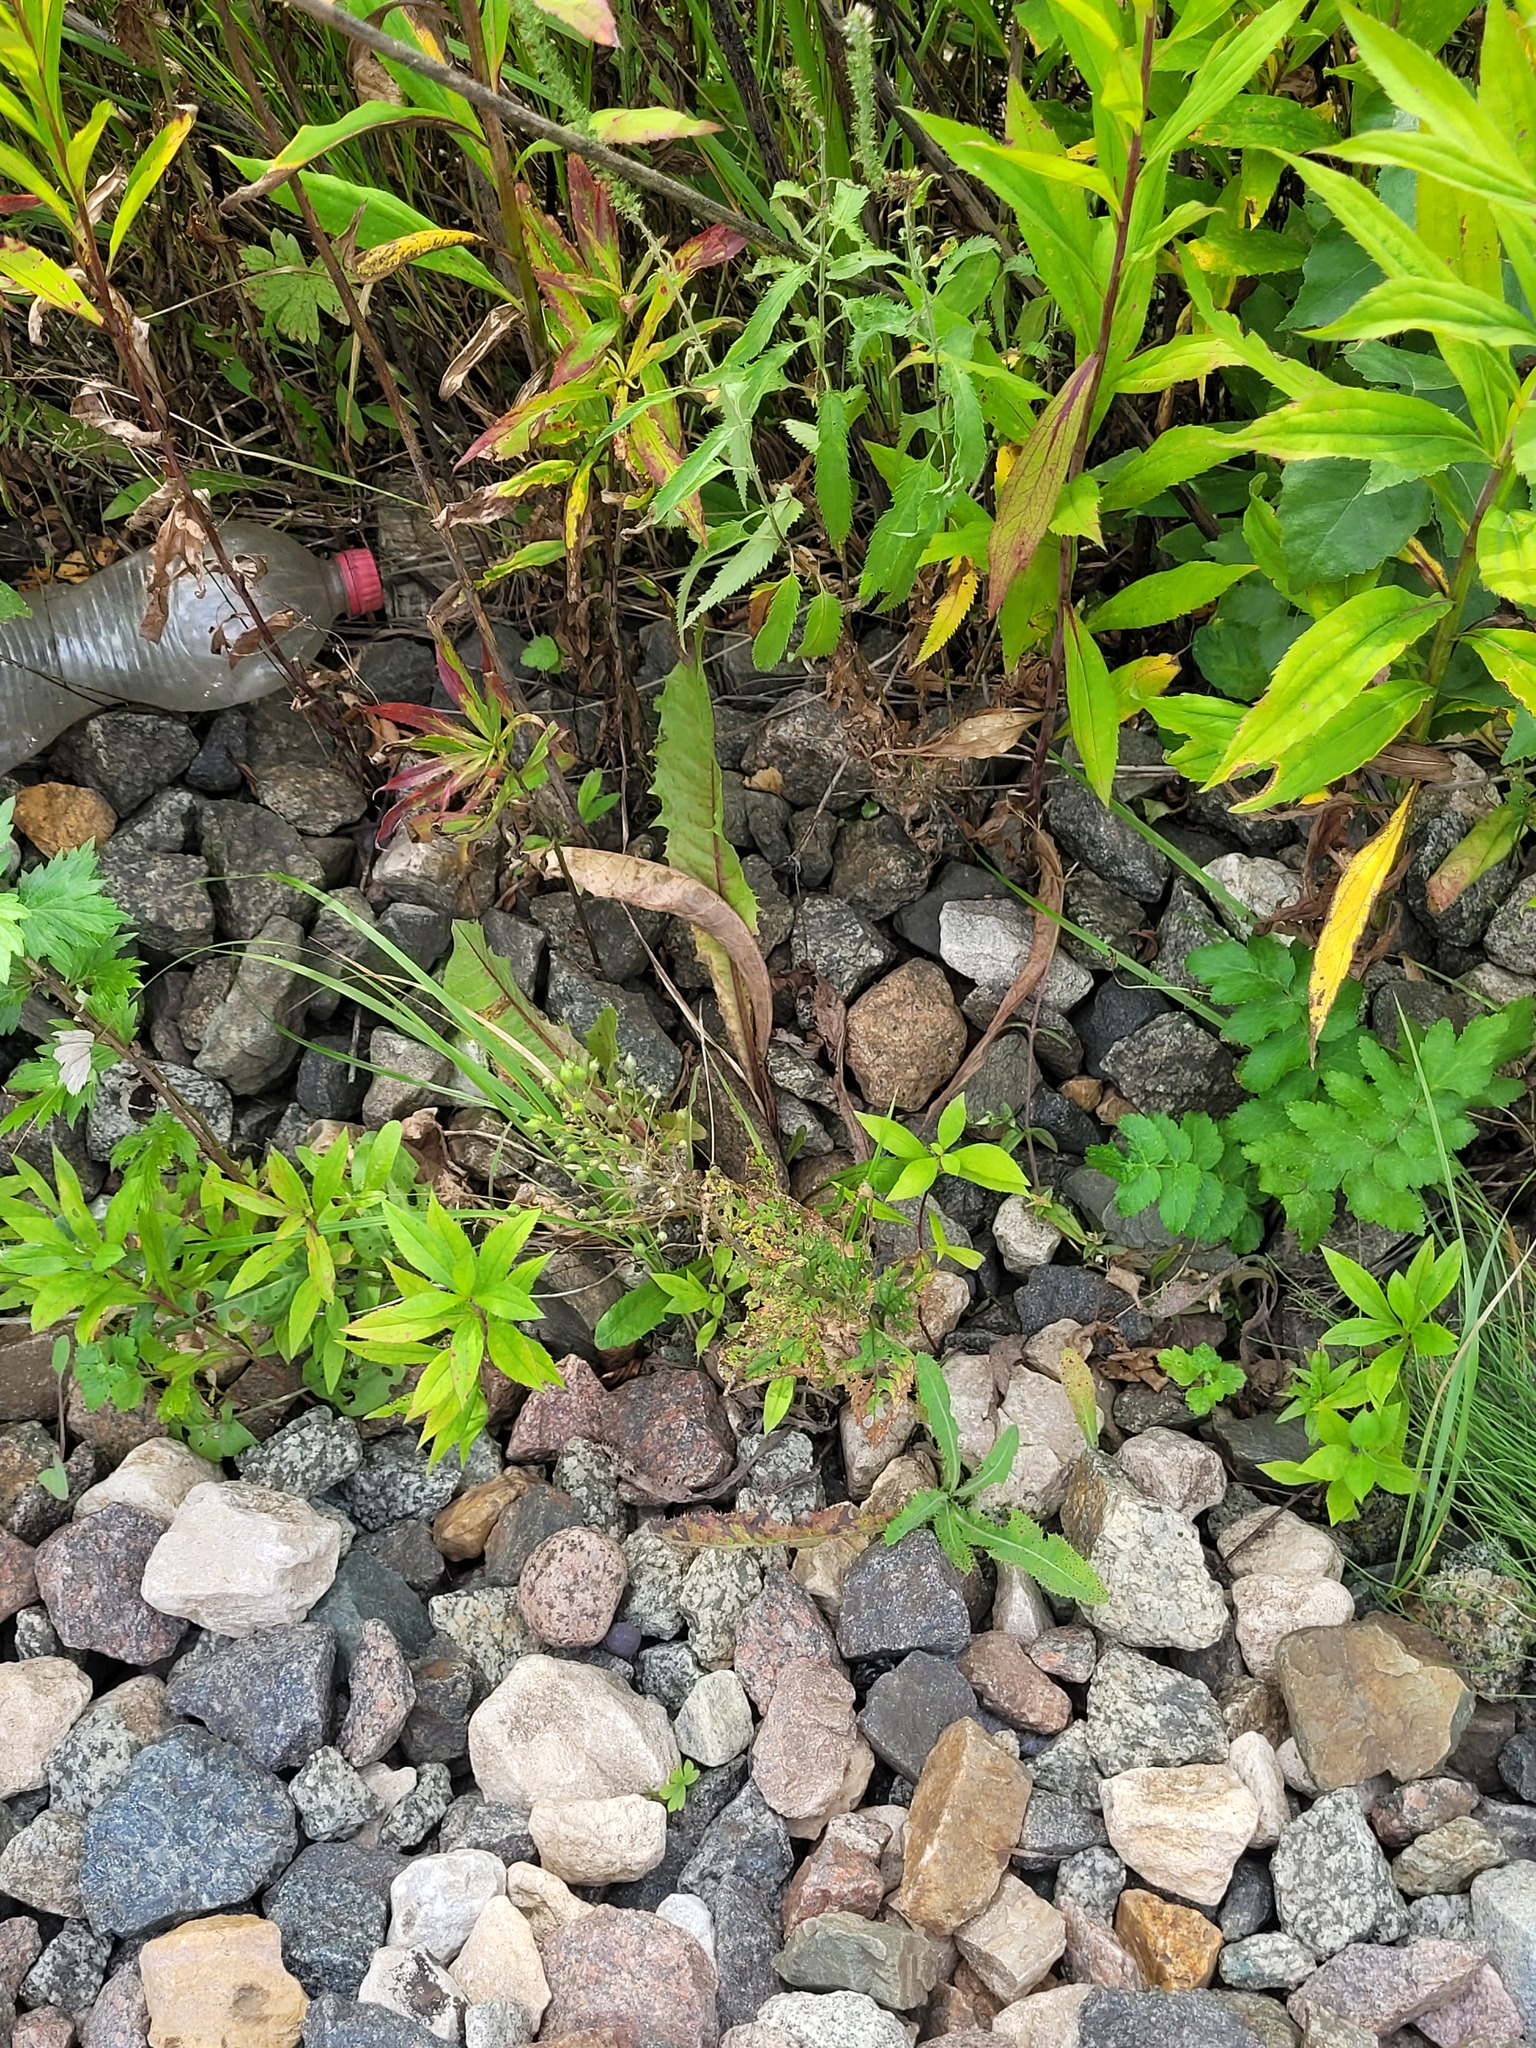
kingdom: Plantae
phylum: Tracheophyta
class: Magnoliopsida
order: Asterales
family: Asteraceae
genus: Erigeron
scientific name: Erigeron canadensis
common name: Canadian fleabane
